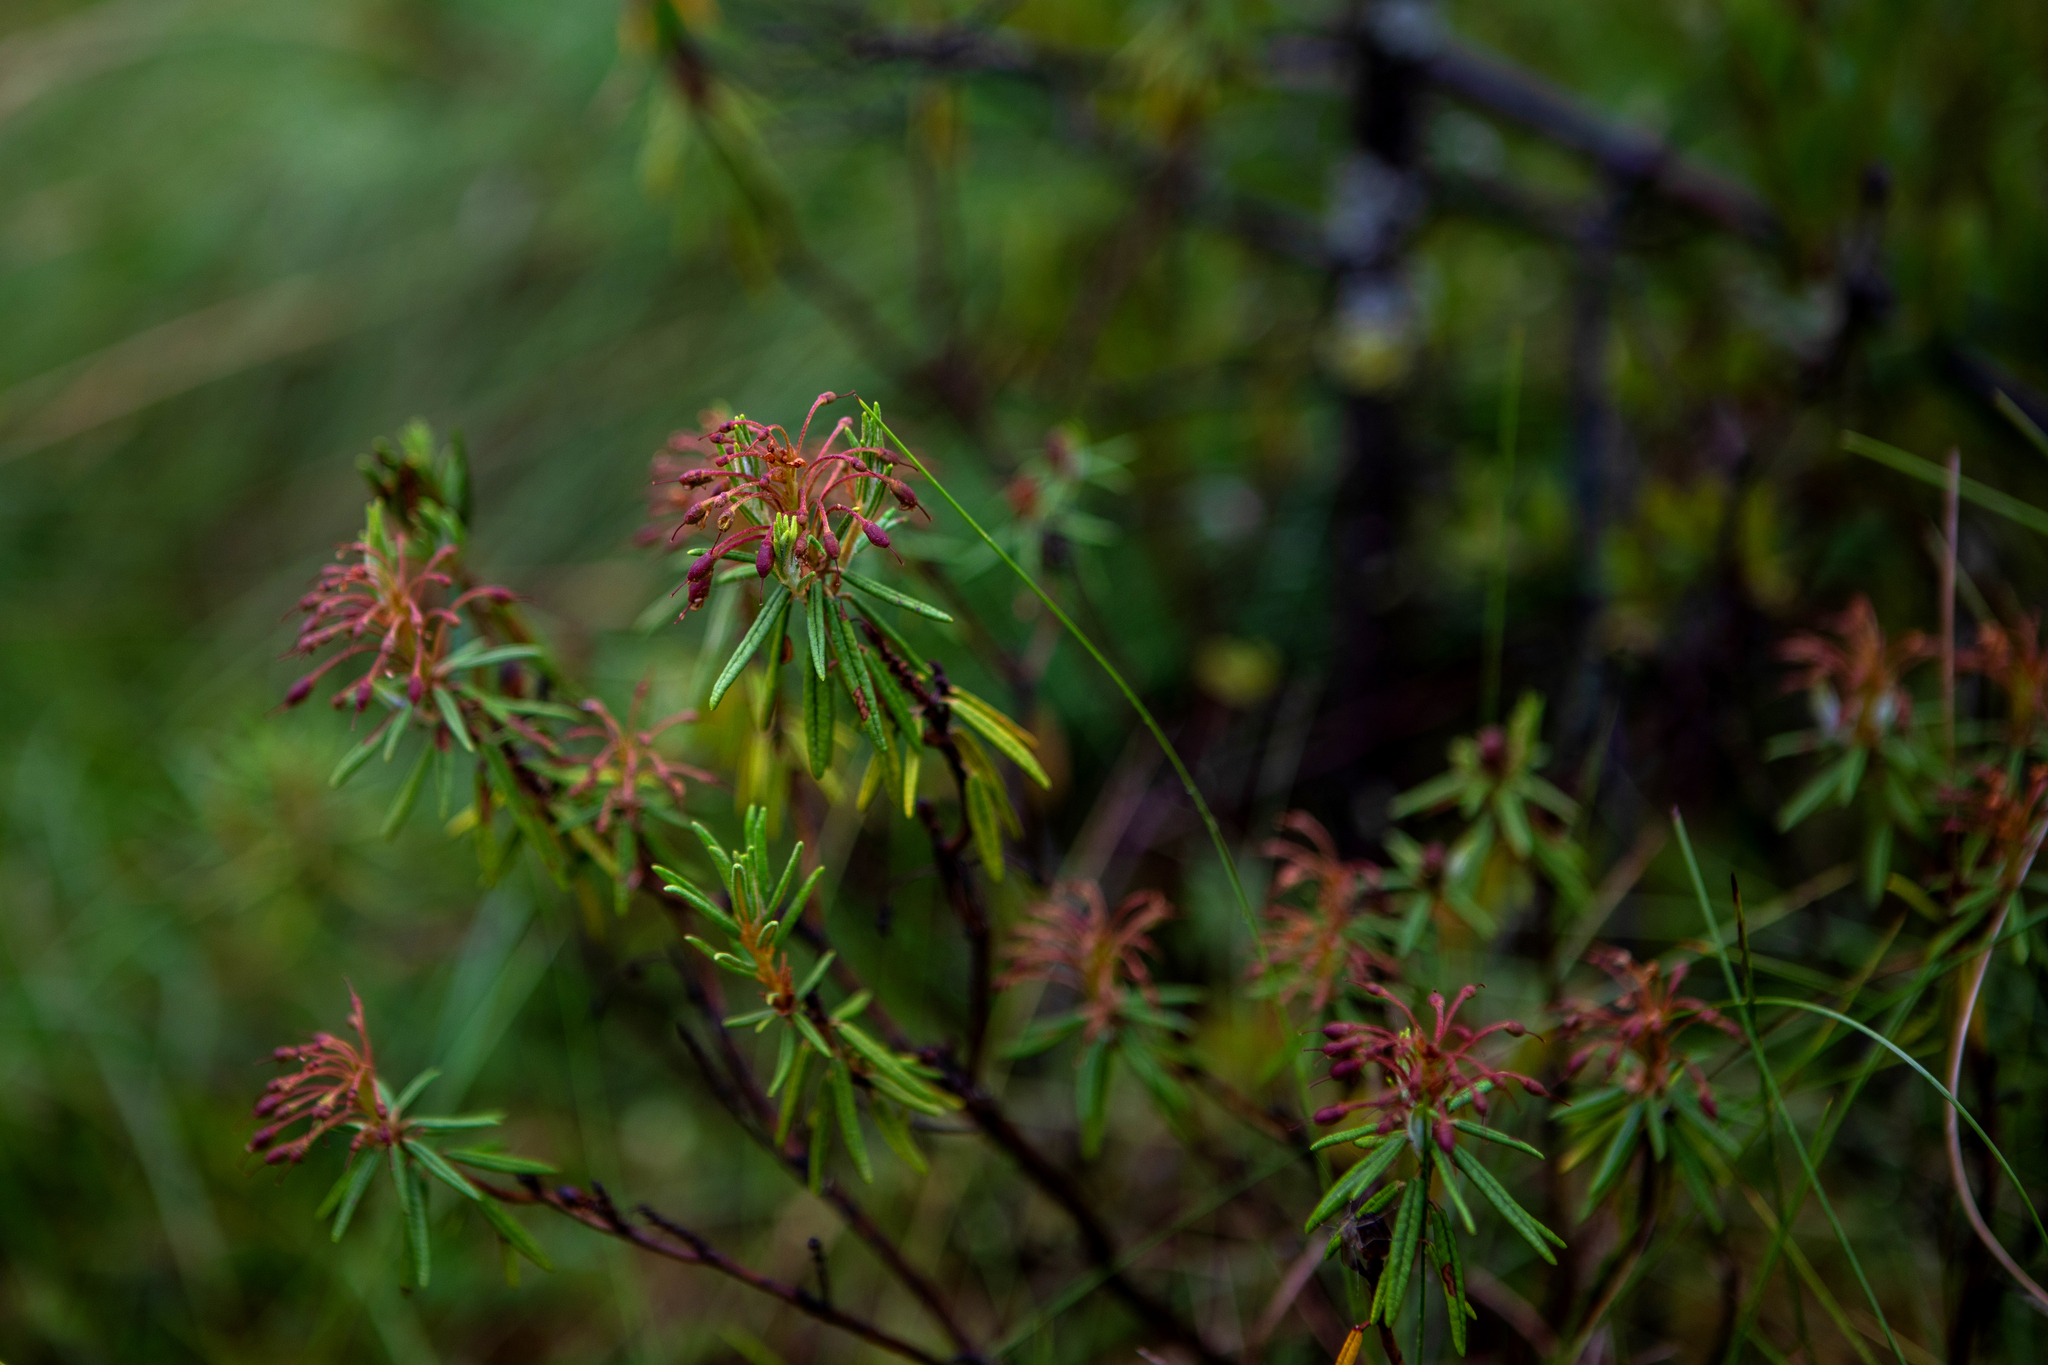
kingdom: Plantae
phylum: Tracheophyta
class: Magnoliopsida
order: Ericales
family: Ericaceae
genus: Rhododendron
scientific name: Rhododendron tomentosum
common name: Marsh labrador tea
